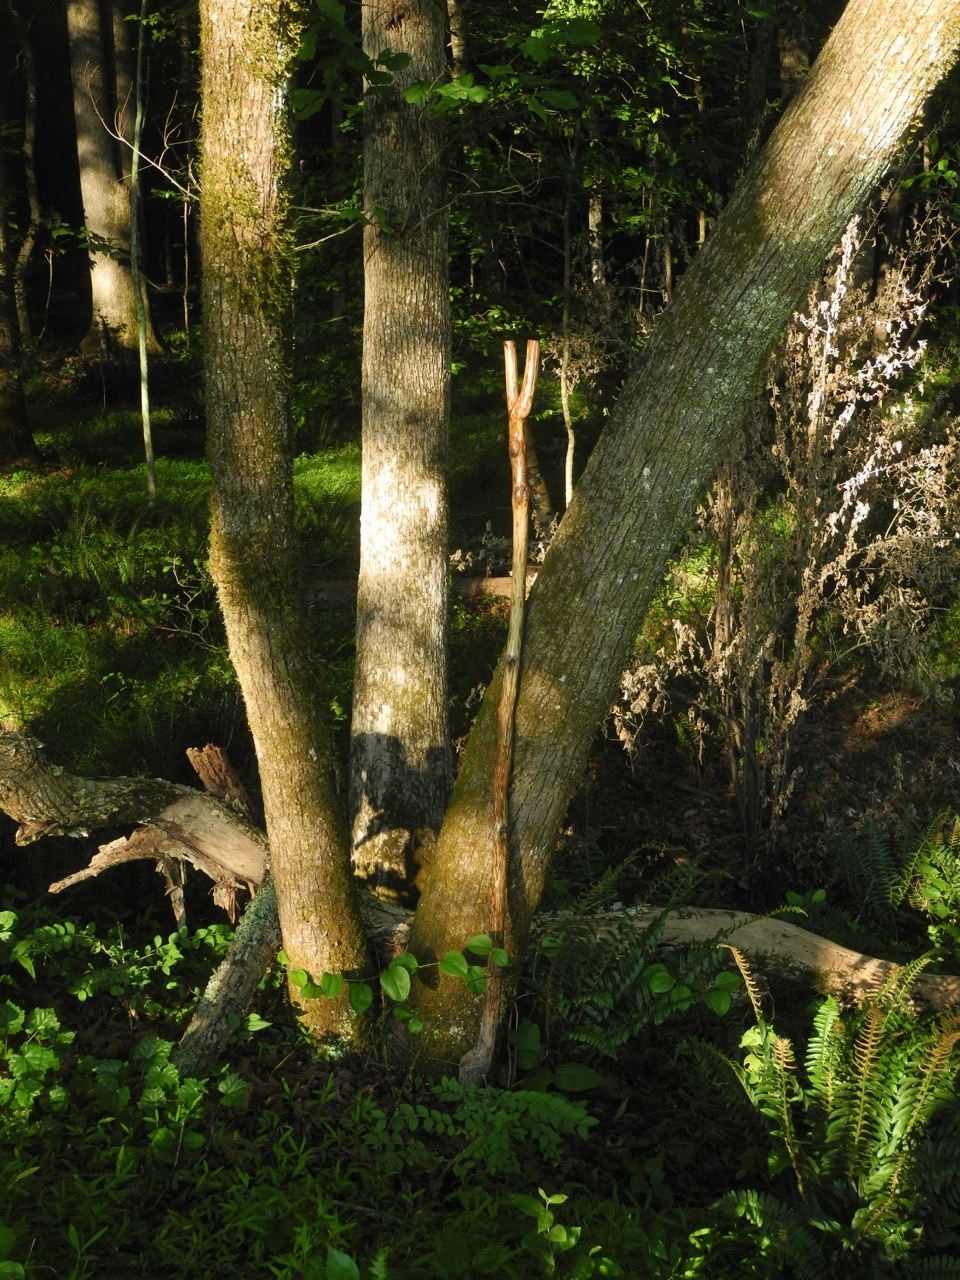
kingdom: Plantae
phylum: Tracheophyta
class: Magnoliopsida
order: Malvales
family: Malvaceae
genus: Tilia
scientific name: Tilia americana
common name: Basswood
